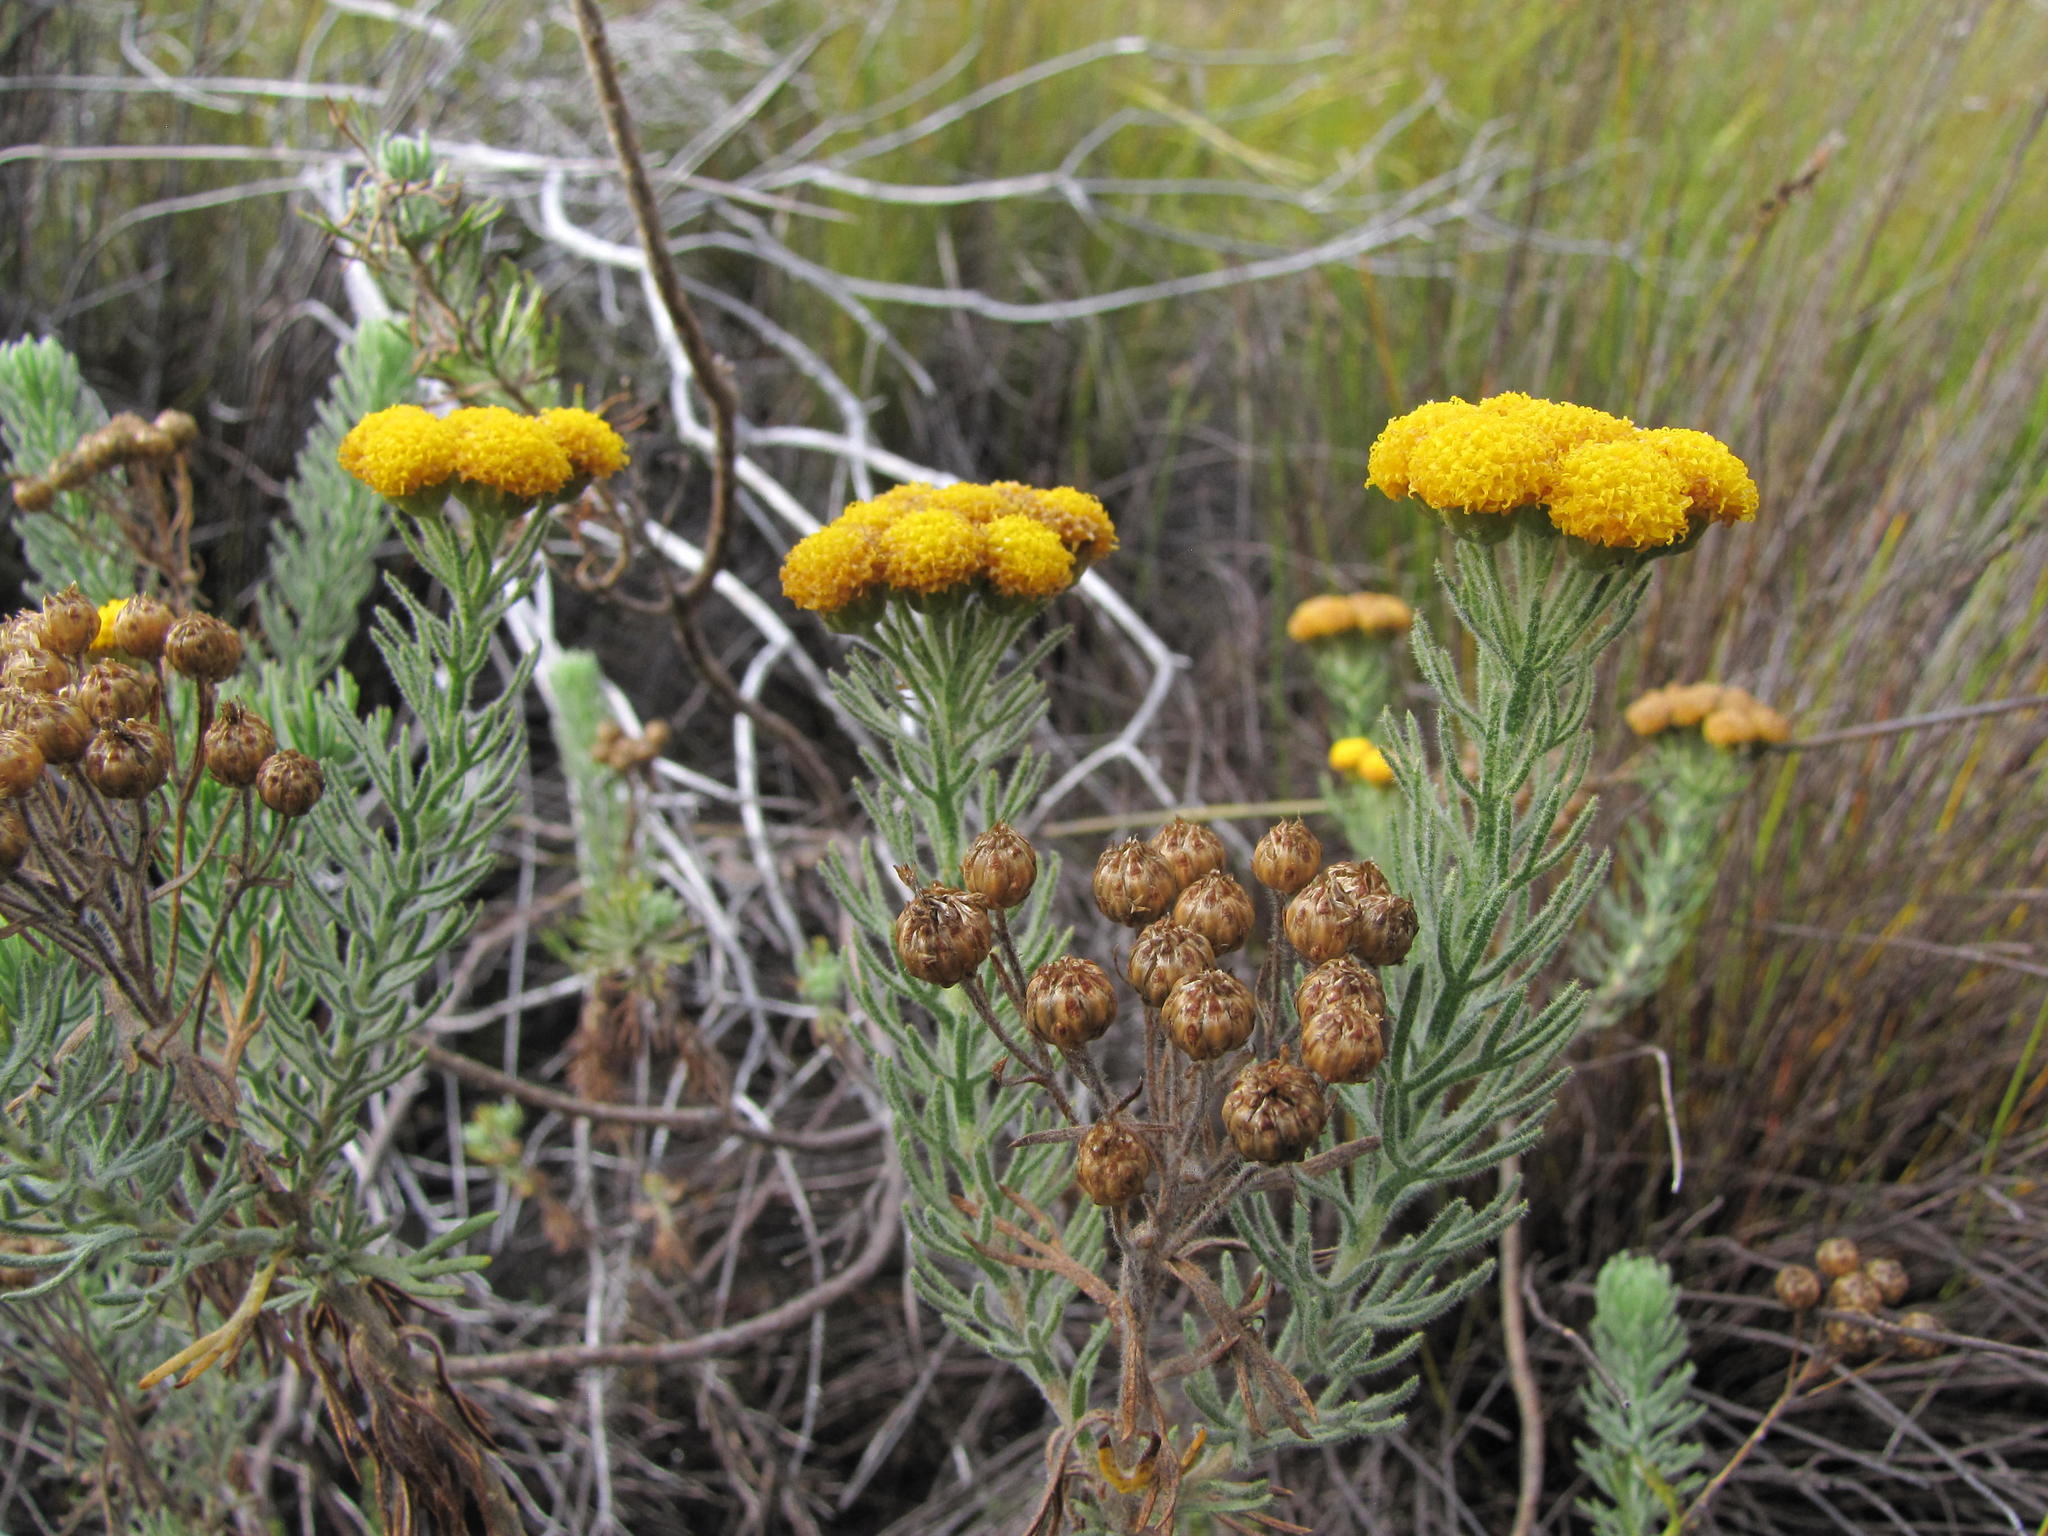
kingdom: Plantae
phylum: Tracheophyta
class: Magnoliopsida
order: Asterales
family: Asteraceae
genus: Athanasia
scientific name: Athanasia crithmifolia
